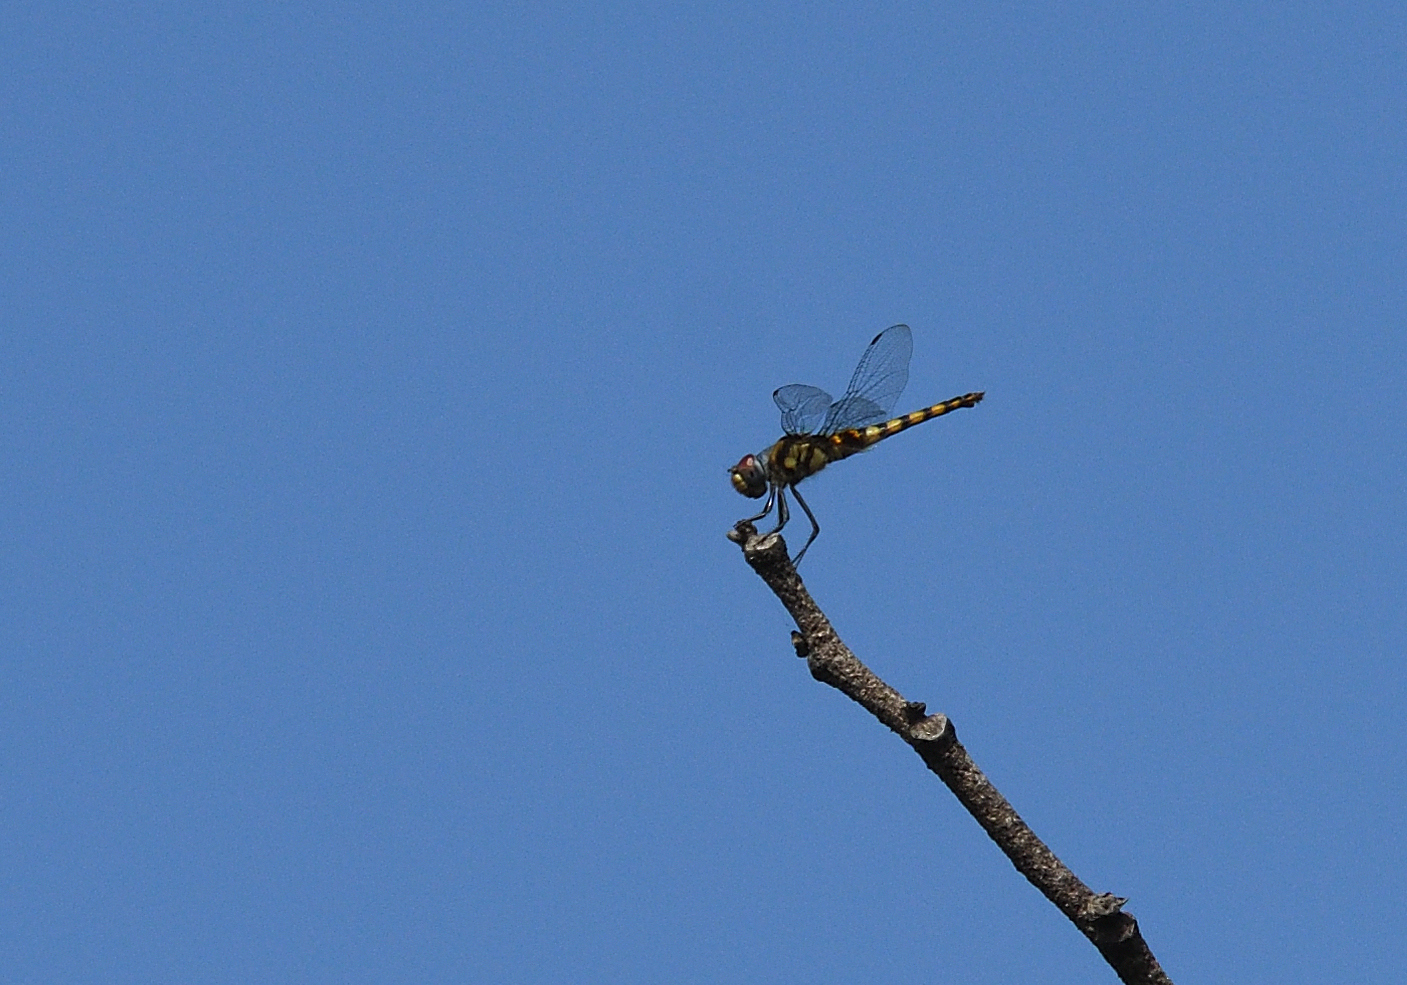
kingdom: Animalia
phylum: Arthropoda
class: Insecta
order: Odonata
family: Libellulidae
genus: Urothemis
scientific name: Urothemis signata
